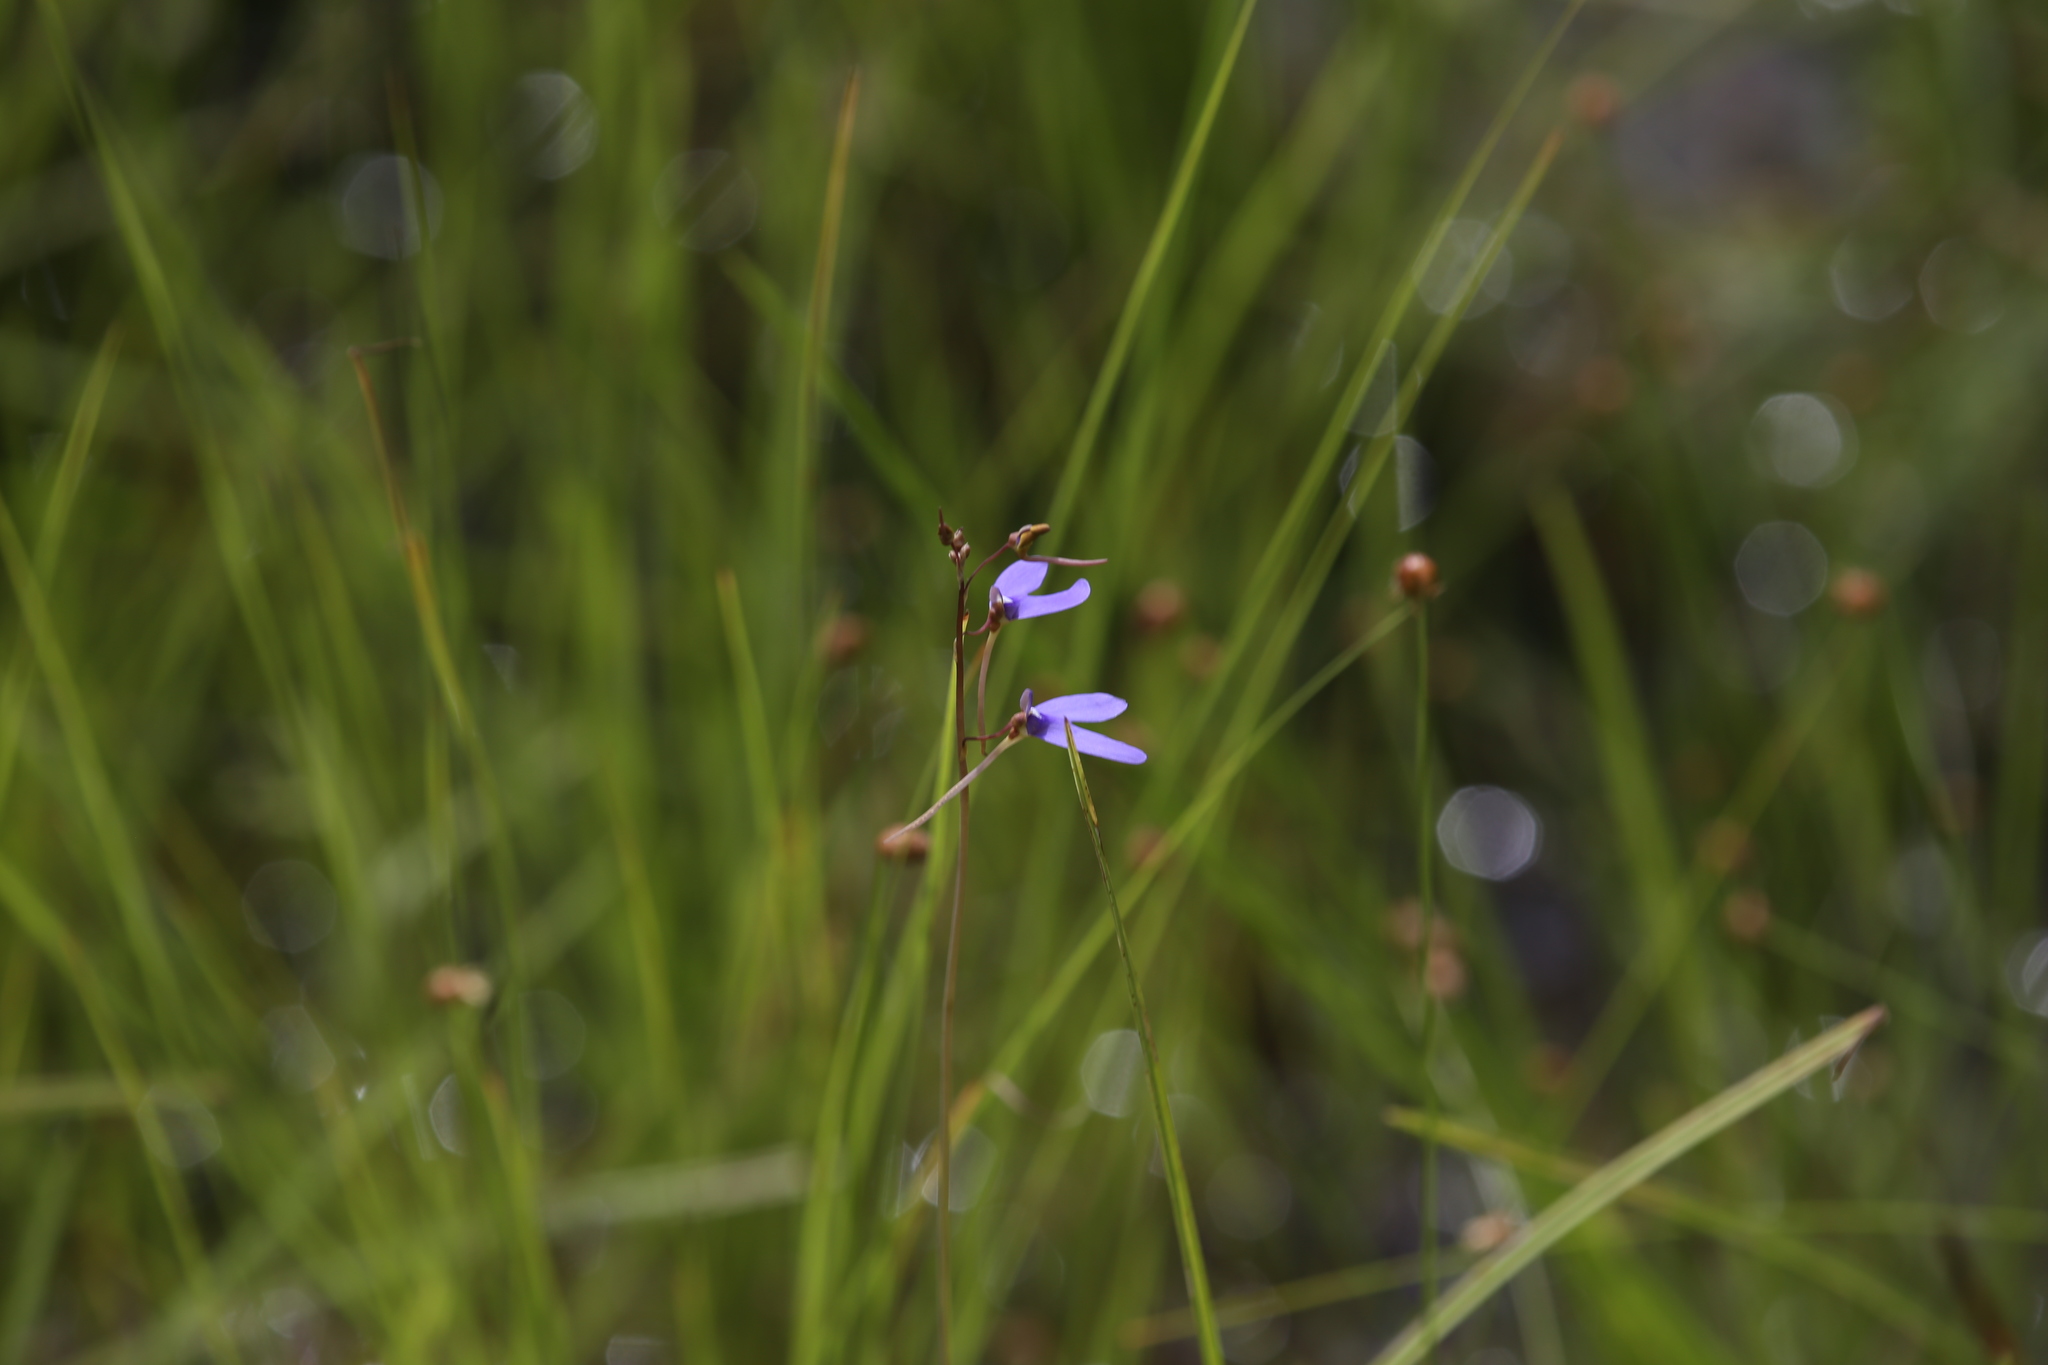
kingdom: Plantae
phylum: Tracheophyta
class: Magnoliopsida
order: Lamiales
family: Lentibulariaceae
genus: Utricularia
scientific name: Utricularia leptoplectra
